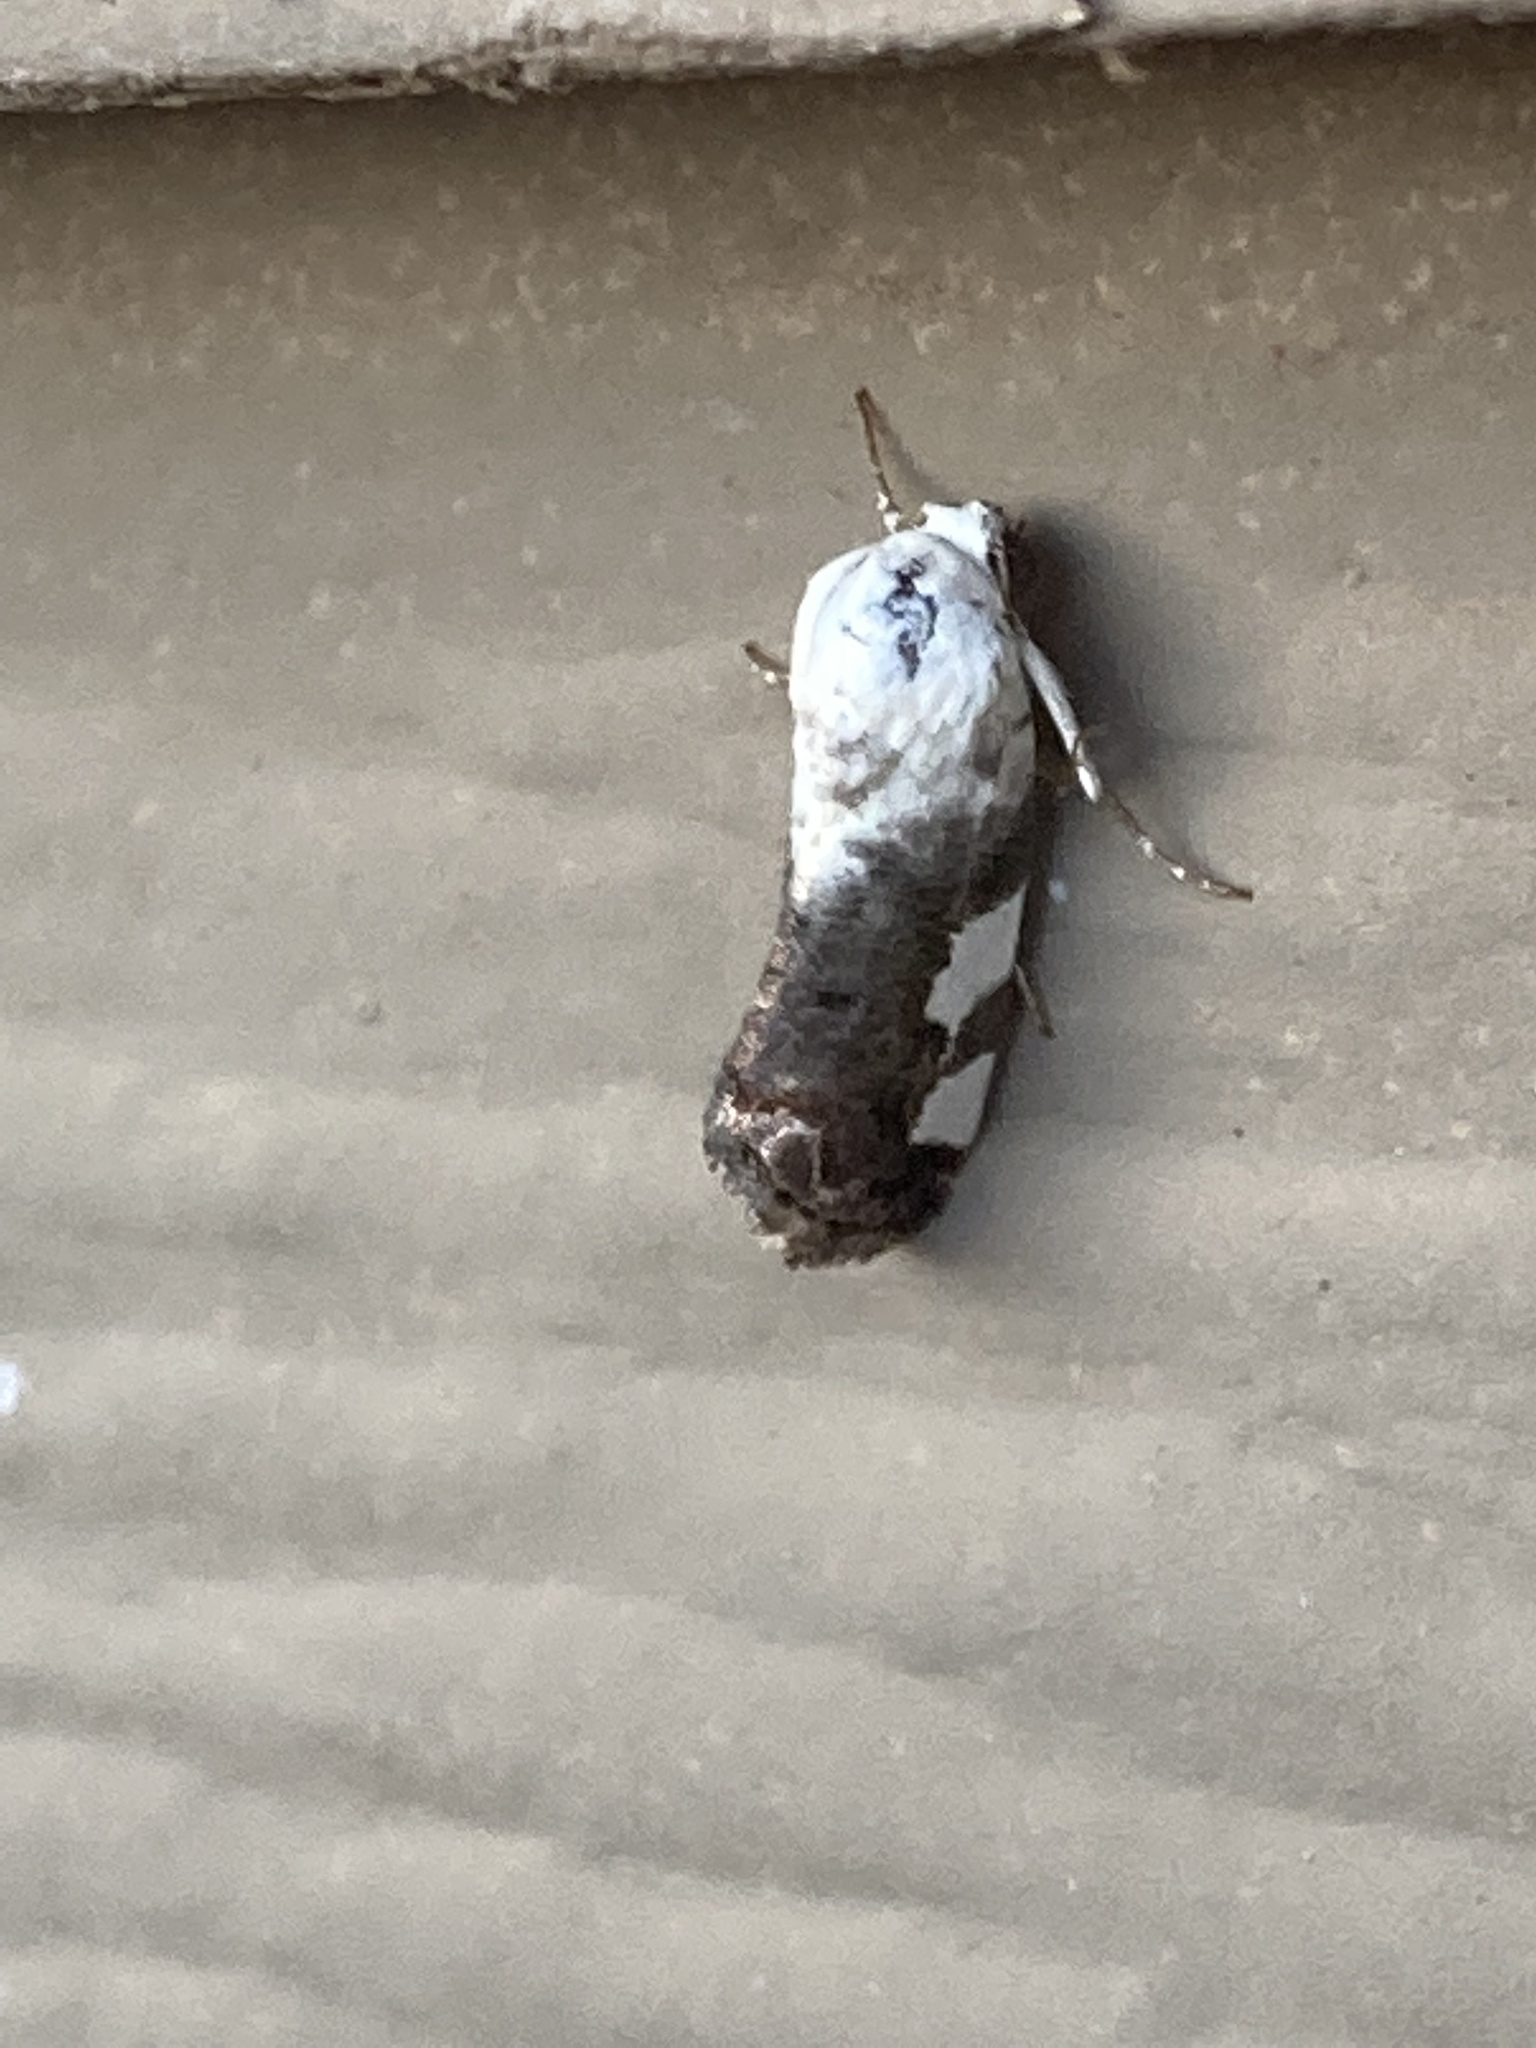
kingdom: Animalia
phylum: Arthropoda
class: Insecta
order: Lepidoptera
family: Noctuidae
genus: Acontia
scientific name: Acontia aprica
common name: Nun
